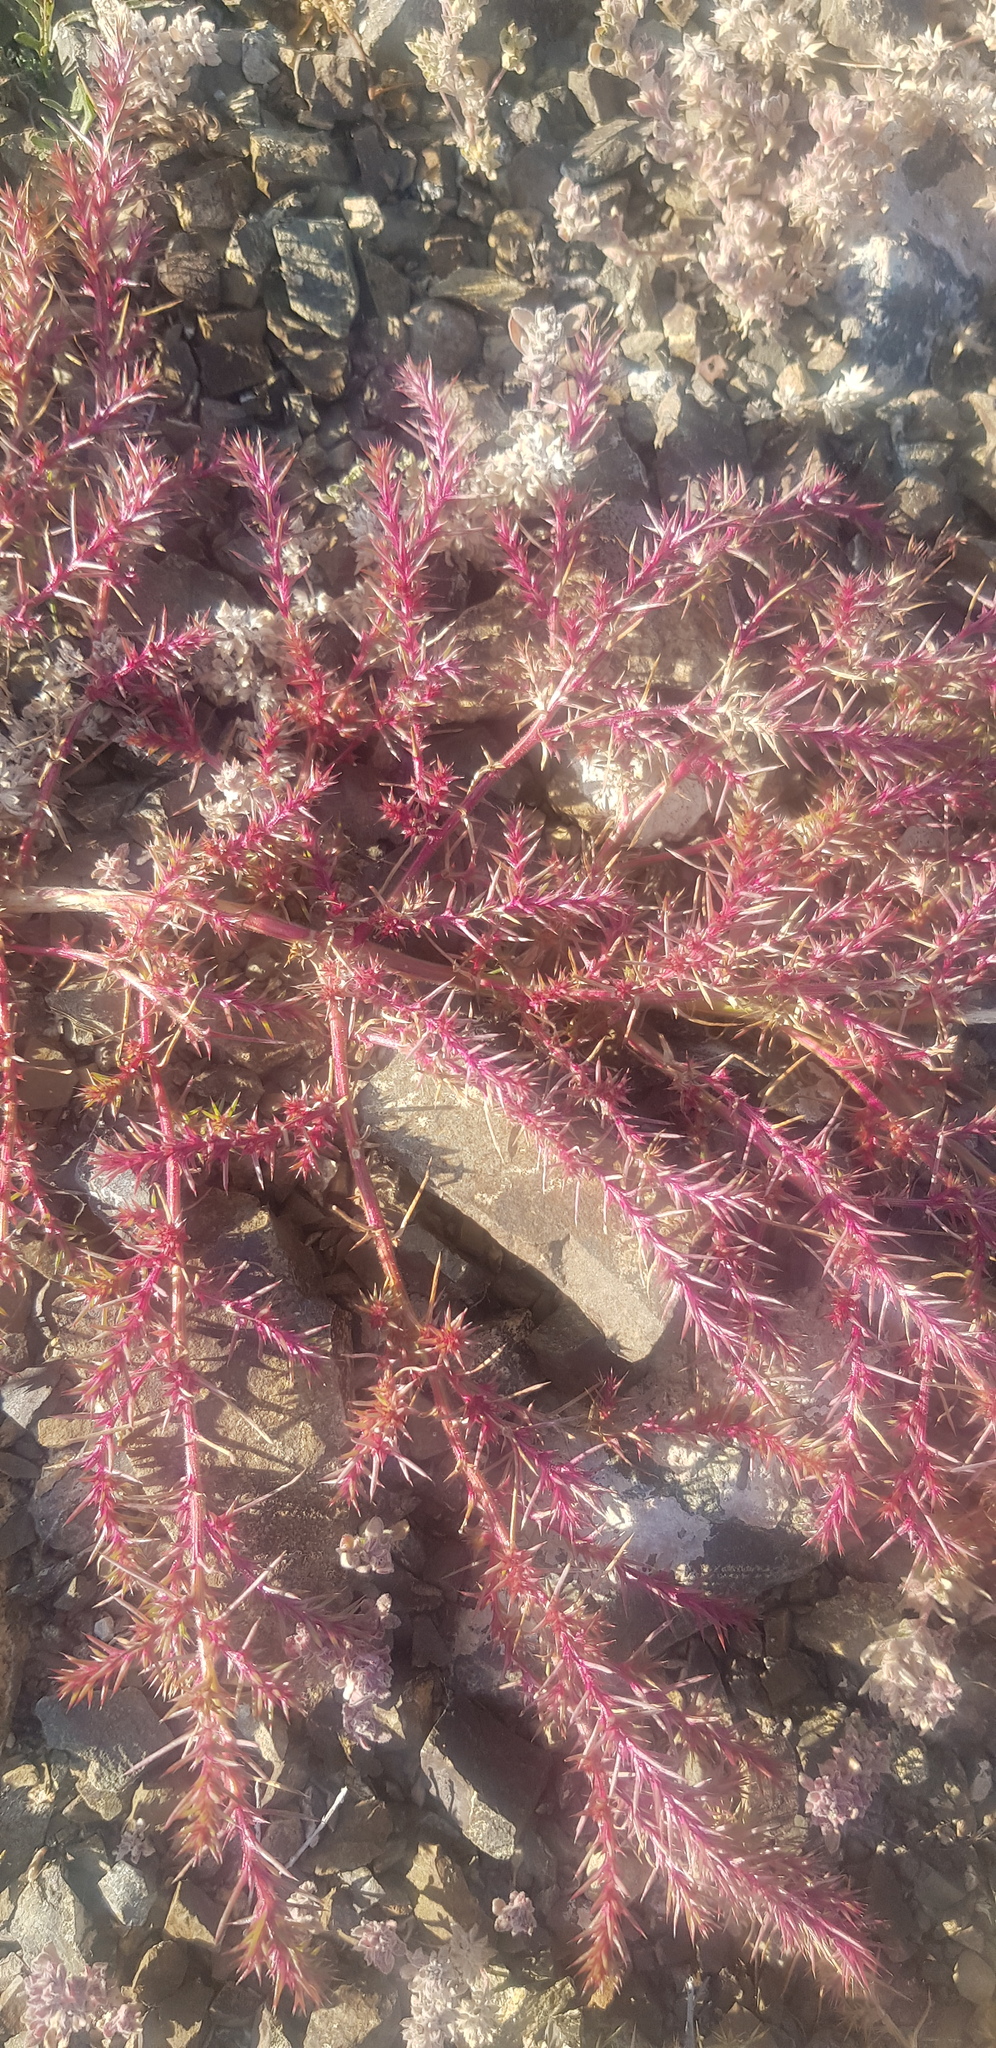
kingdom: Plantae
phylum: Tracheophyta
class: Magnoliopsida
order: Caryophyllales
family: Amaranthaceae
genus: Salsola
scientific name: Salsola collina
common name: Tumbleweed
